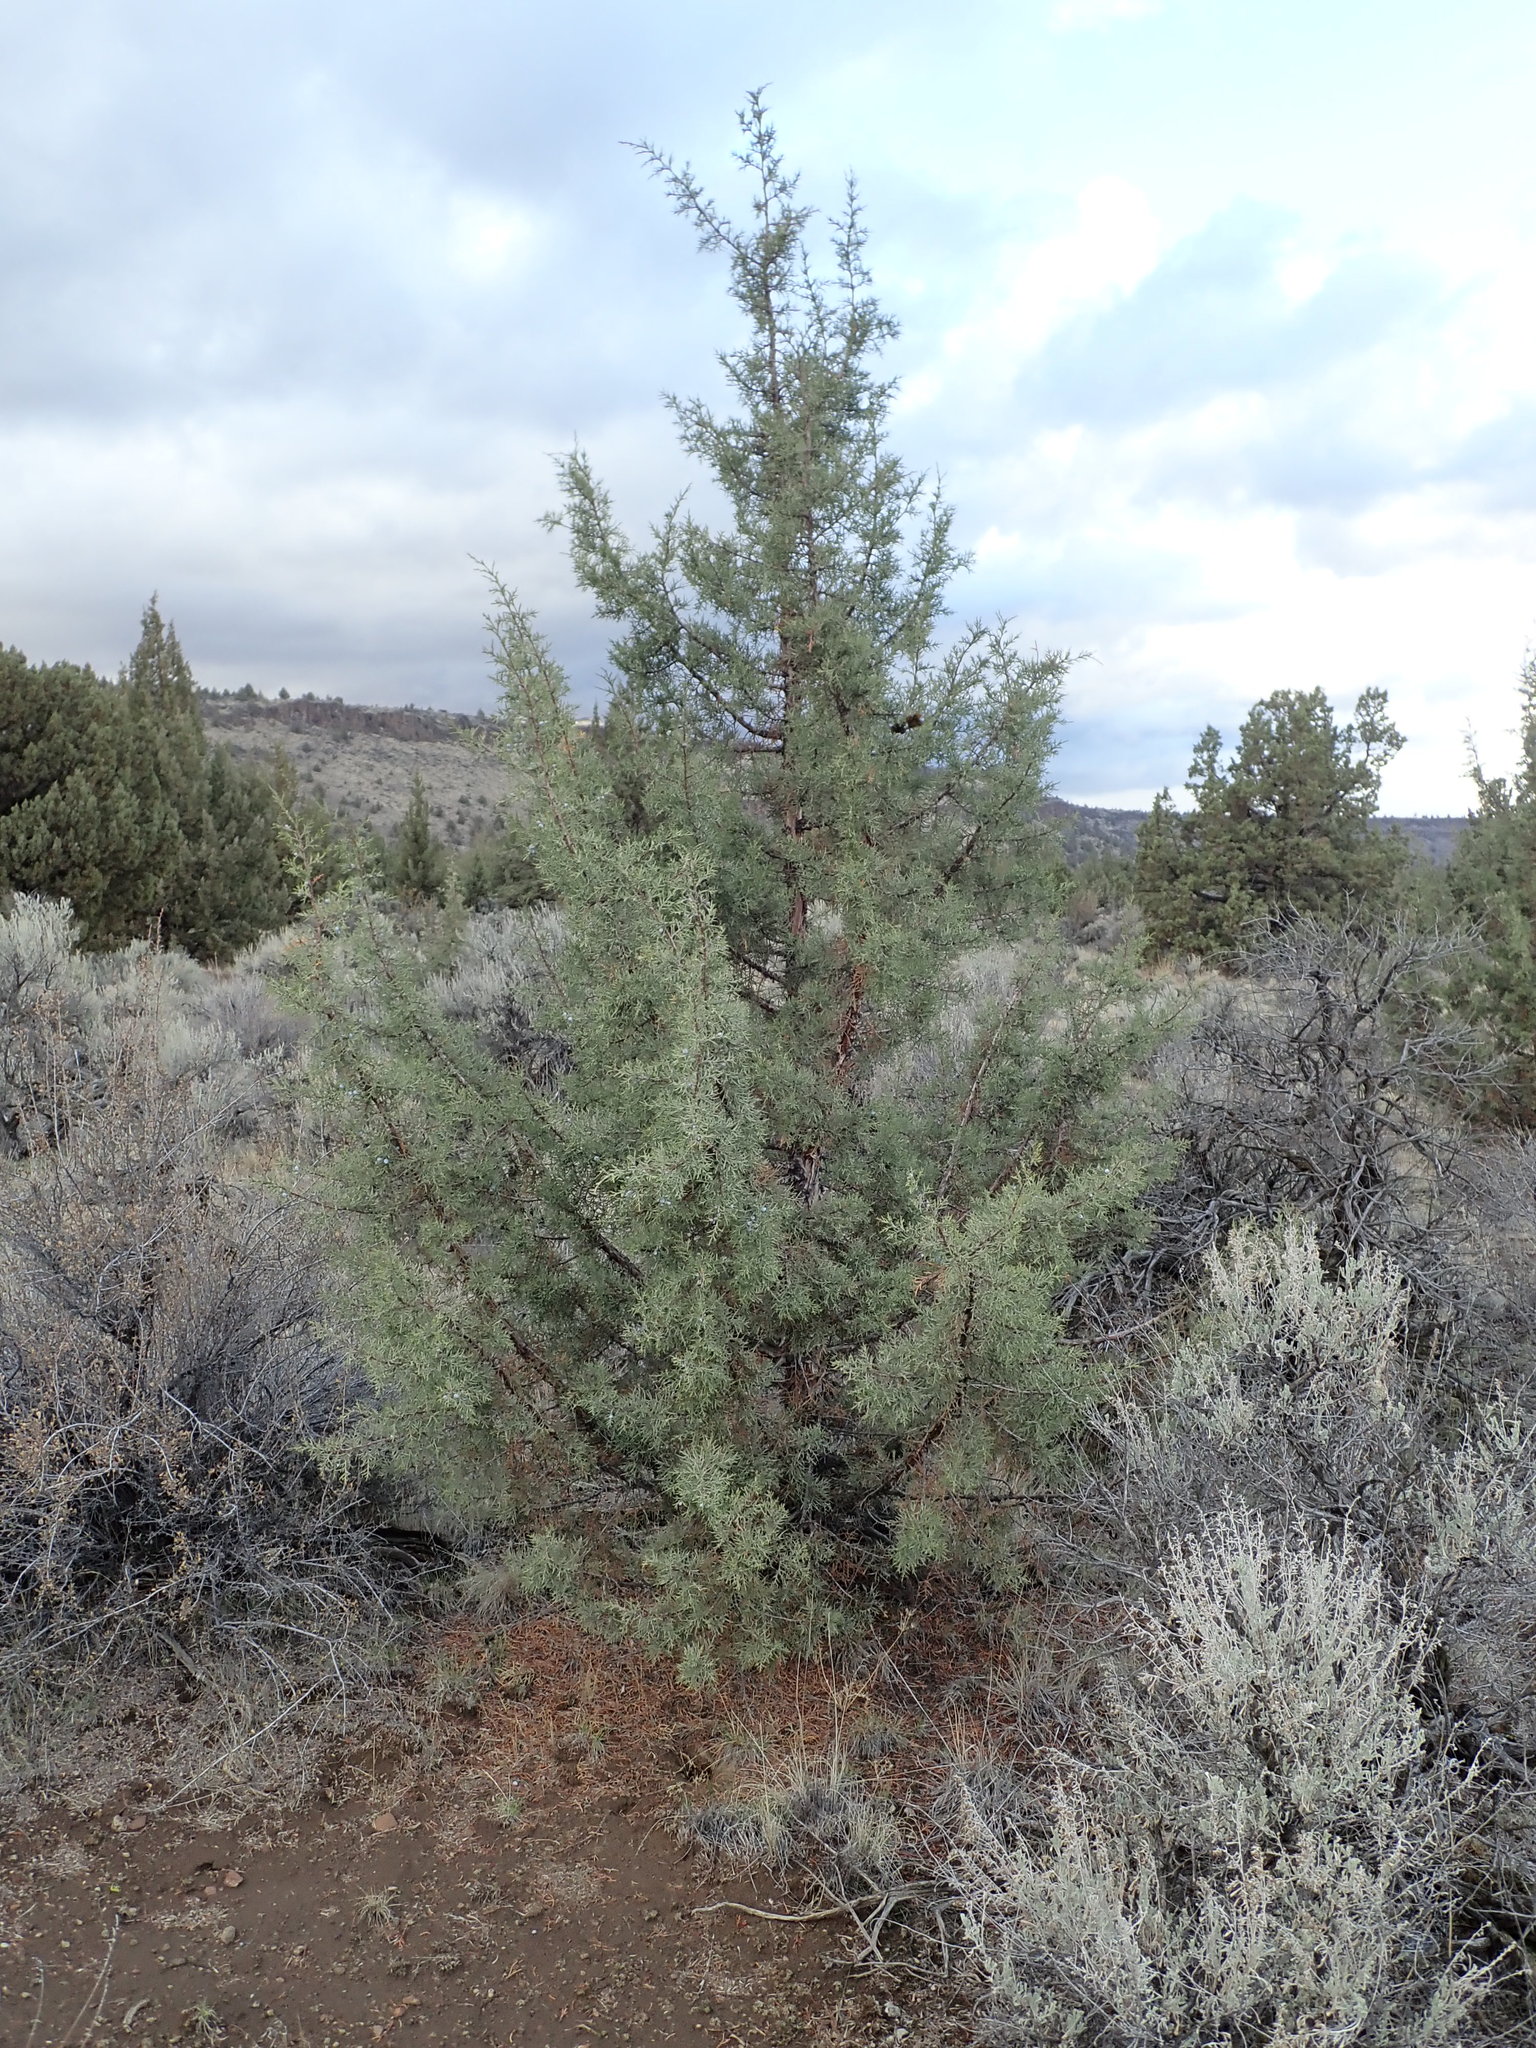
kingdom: Plantae
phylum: Tracheophyta
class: Pinopsida
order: Pinales
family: Cupressaceae
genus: Juniperus
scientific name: Juniperus occidentalis
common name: Western juniper
